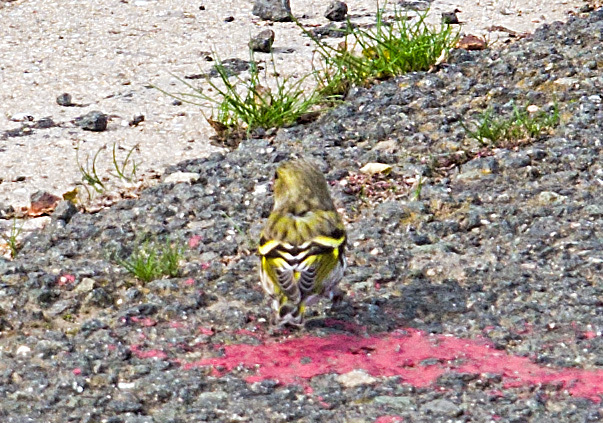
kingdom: Animalia
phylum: Chordata
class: Aves
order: Passeriformes
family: Fringillidae
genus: Spinus
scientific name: Spinus spinus
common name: Eurasian siskin
